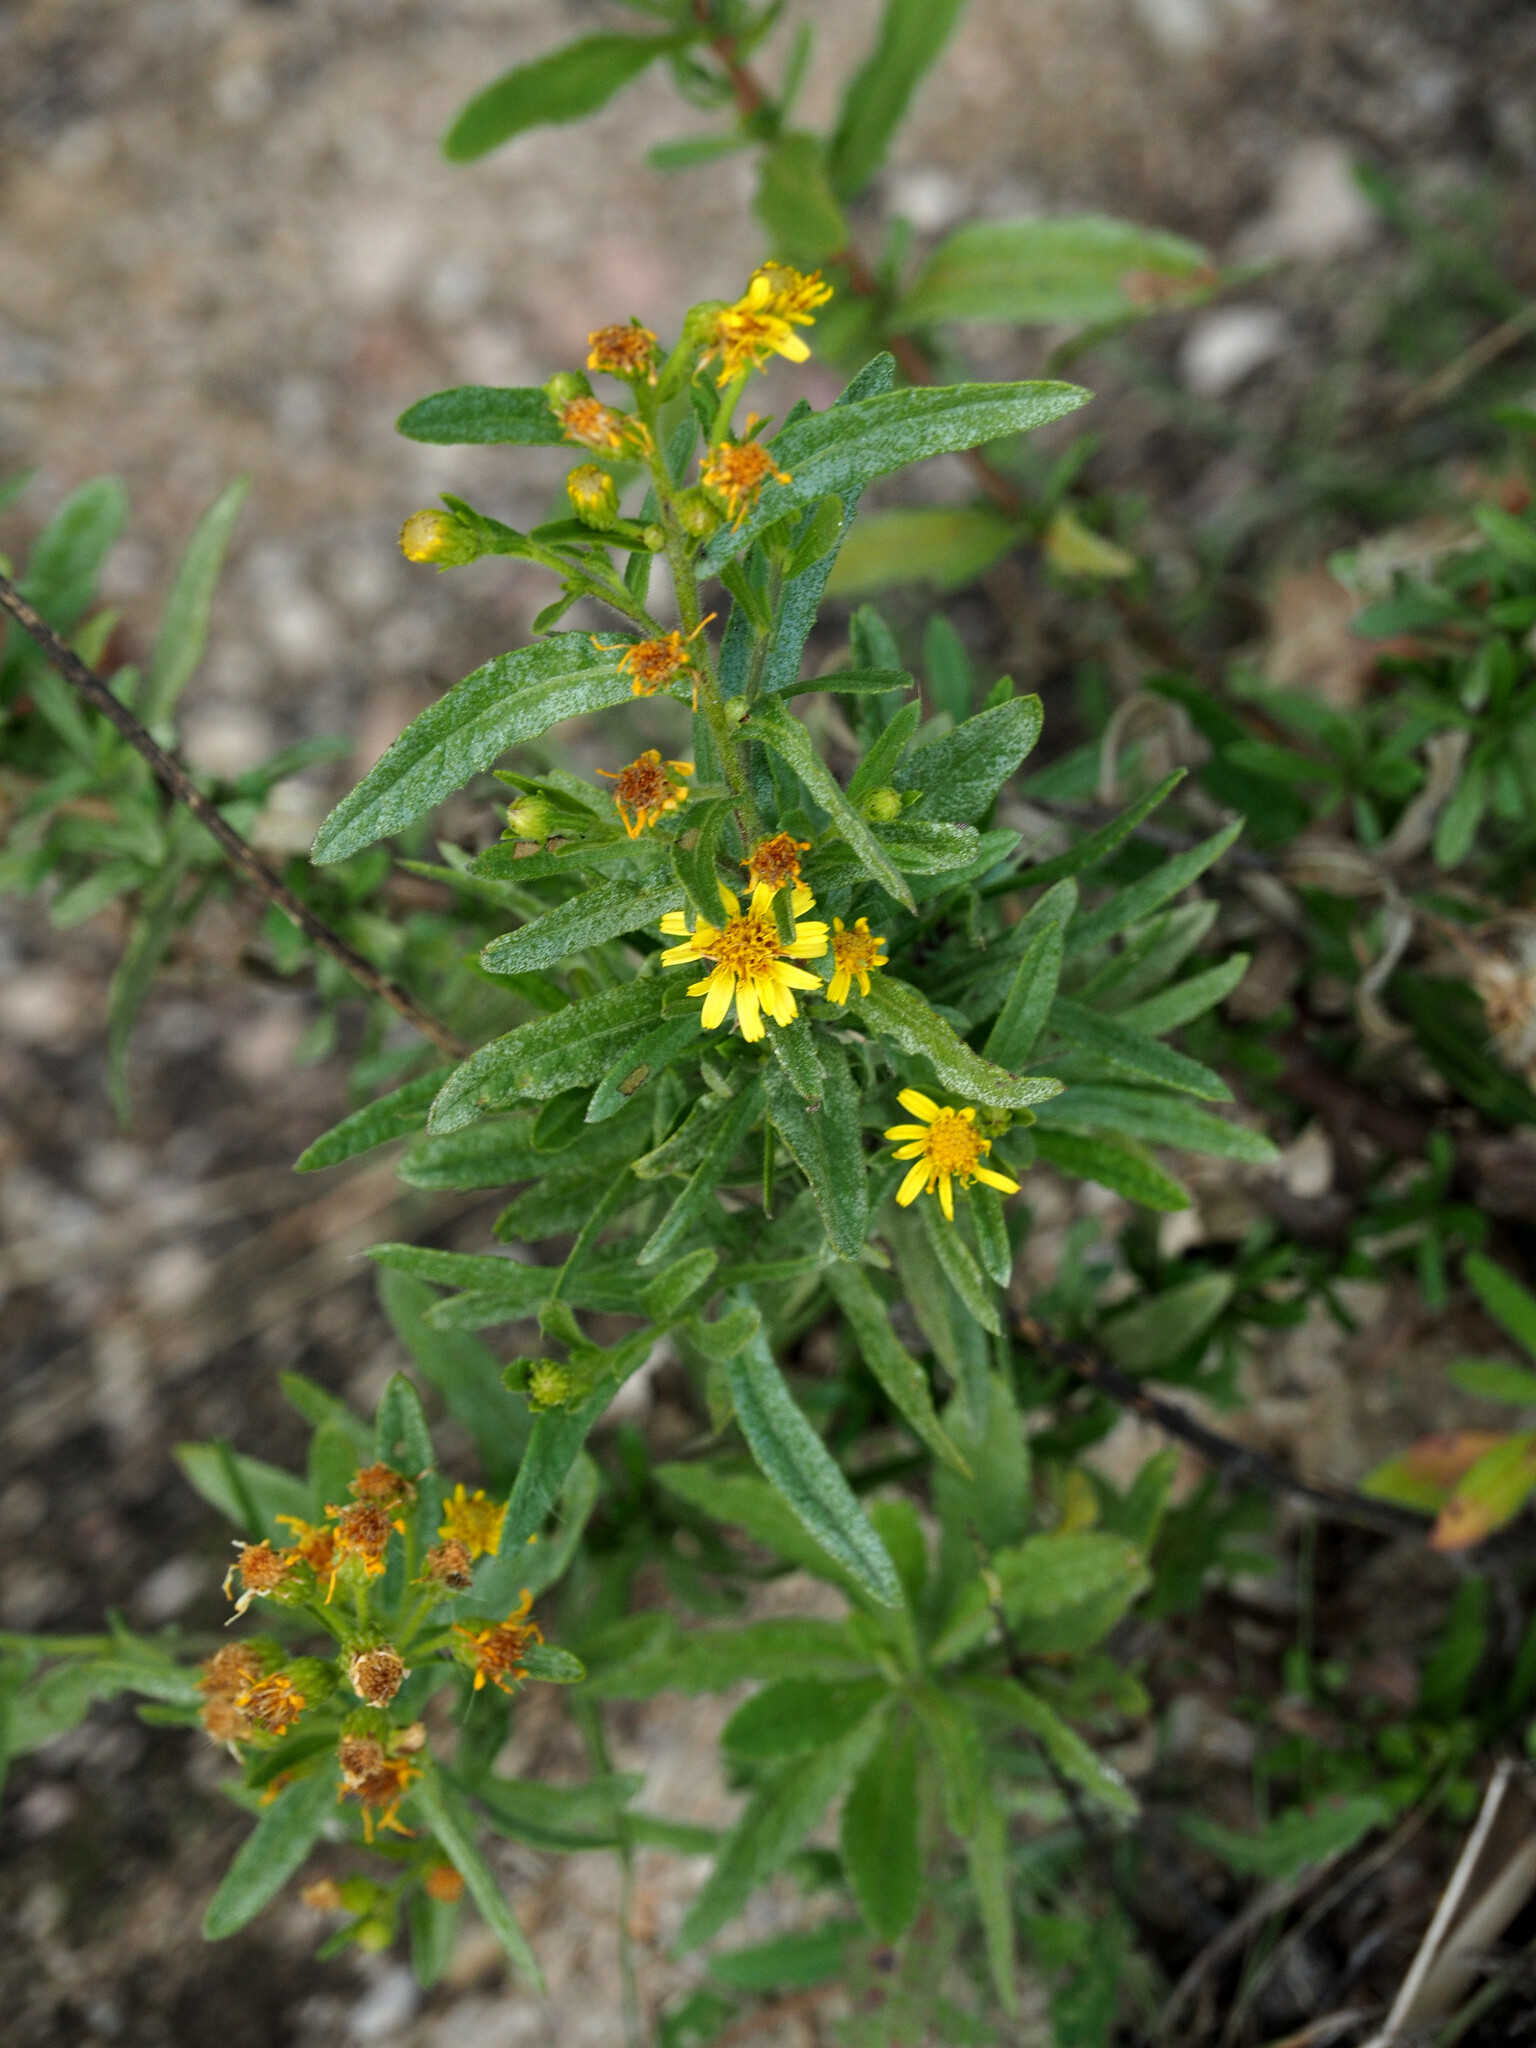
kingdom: Plantae
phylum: Tracheophyta
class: Magnoliopsida
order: Asterales
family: Asteraceae
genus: Dittrichia
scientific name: Dittrichia viscosa
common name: Woody fleabane
